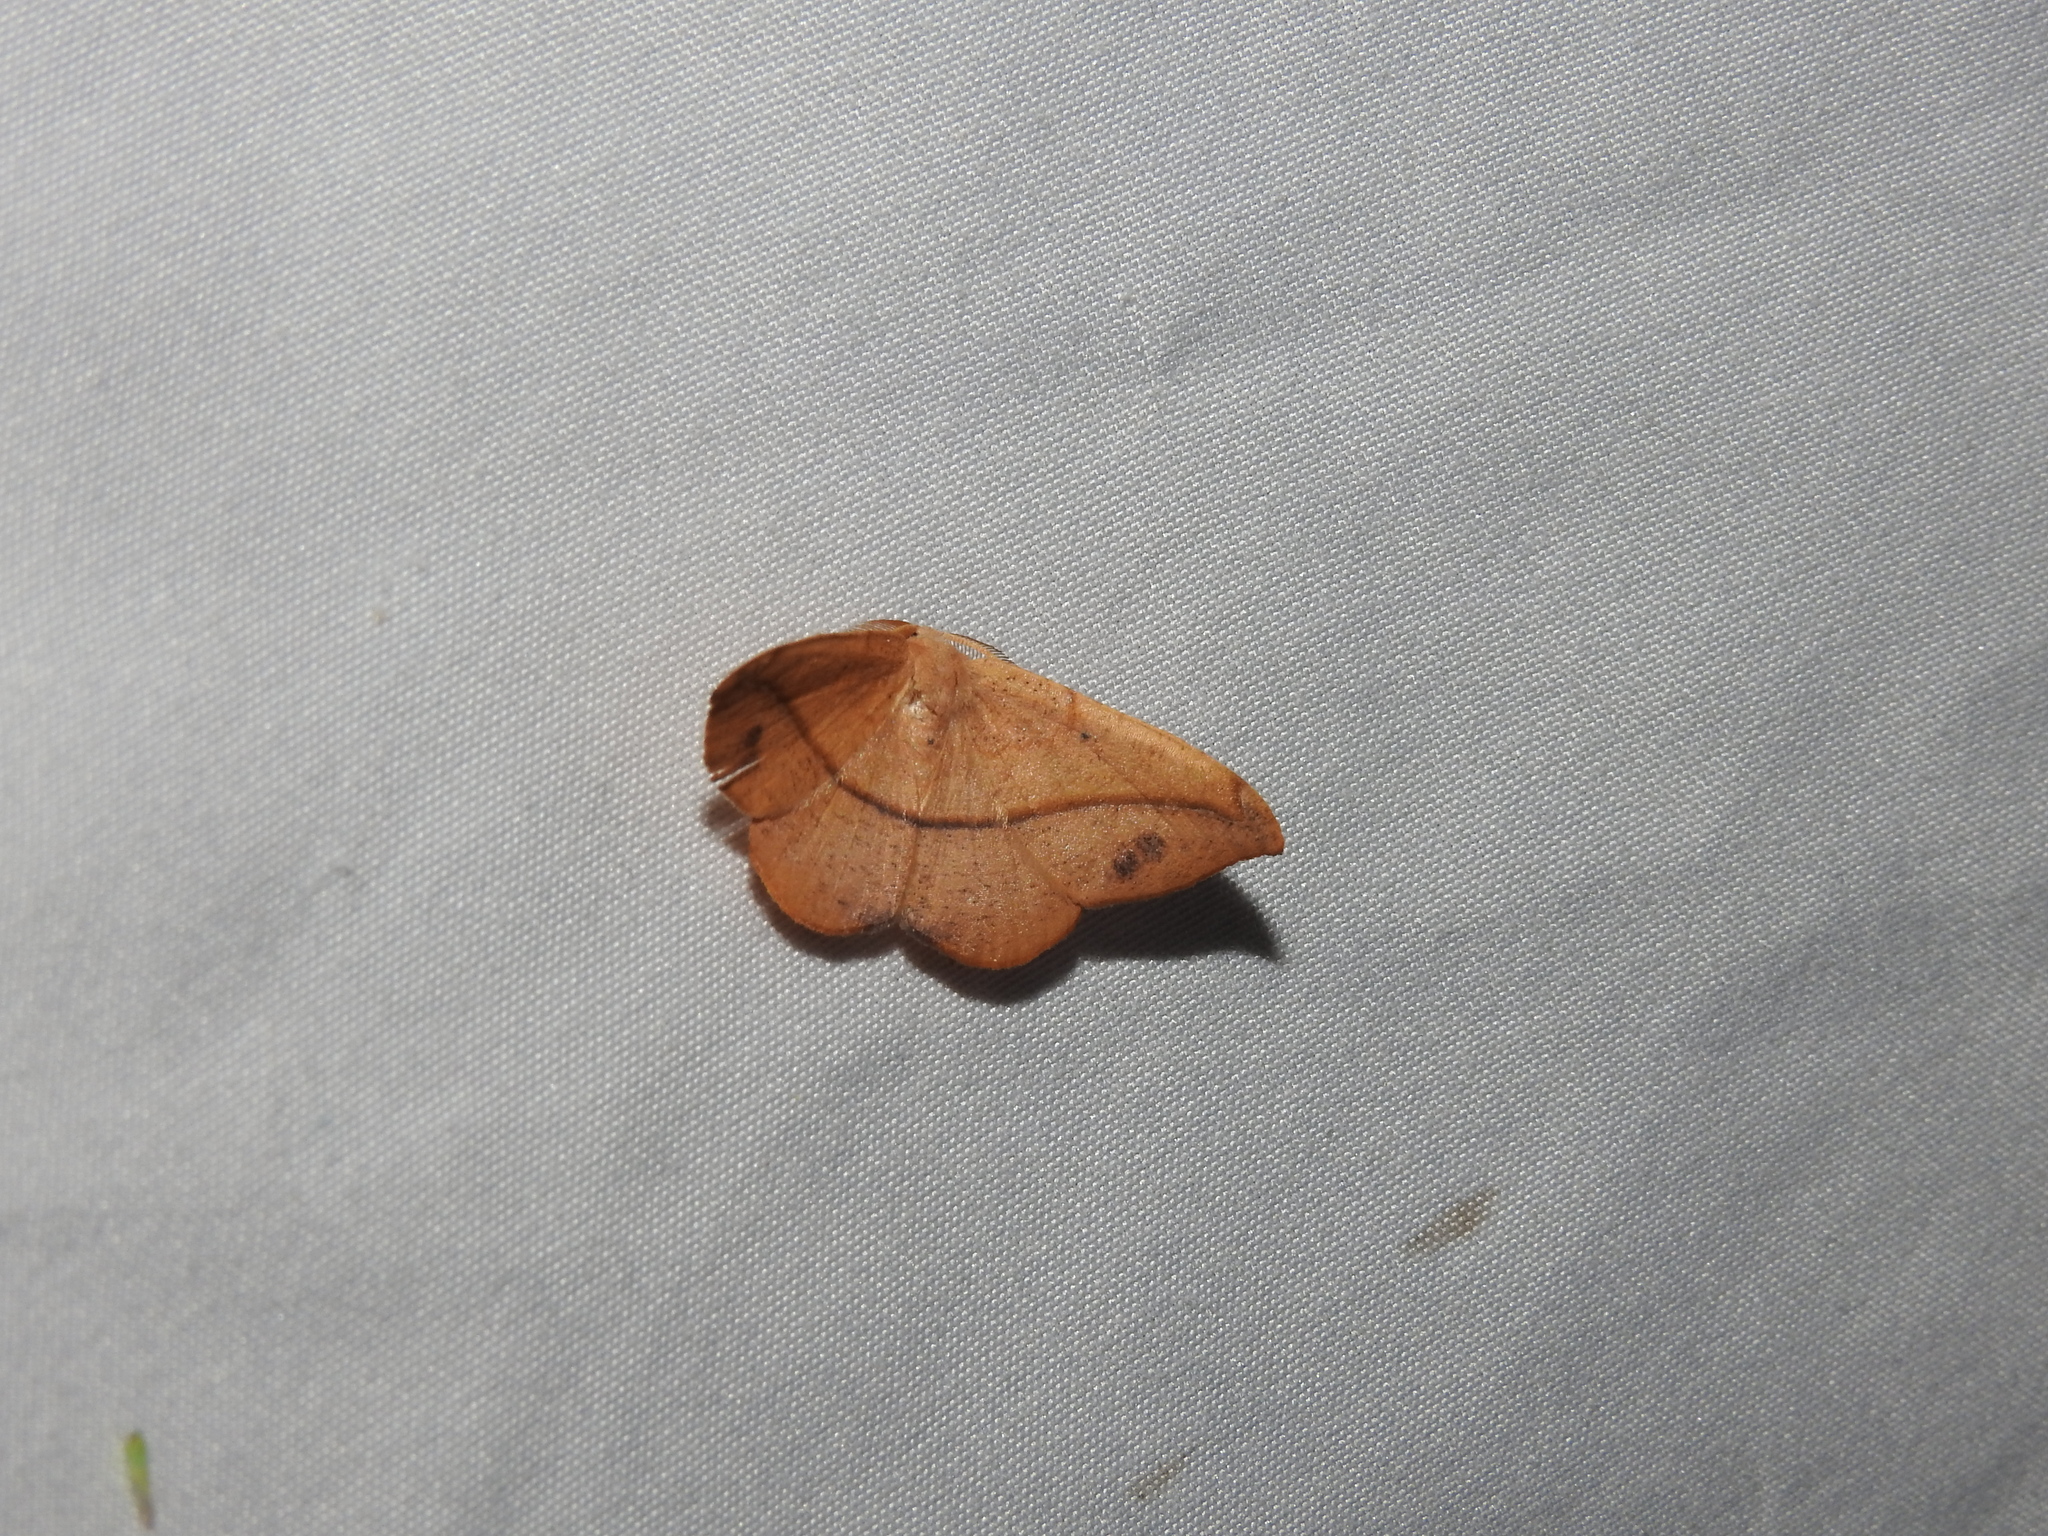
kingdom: Animalia
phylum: Arthropoda
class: Insecta
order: Lepidoptera
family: Geometridae
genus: Patalene
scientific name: Patalene olyzonaria
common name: Juniper geometer moth
